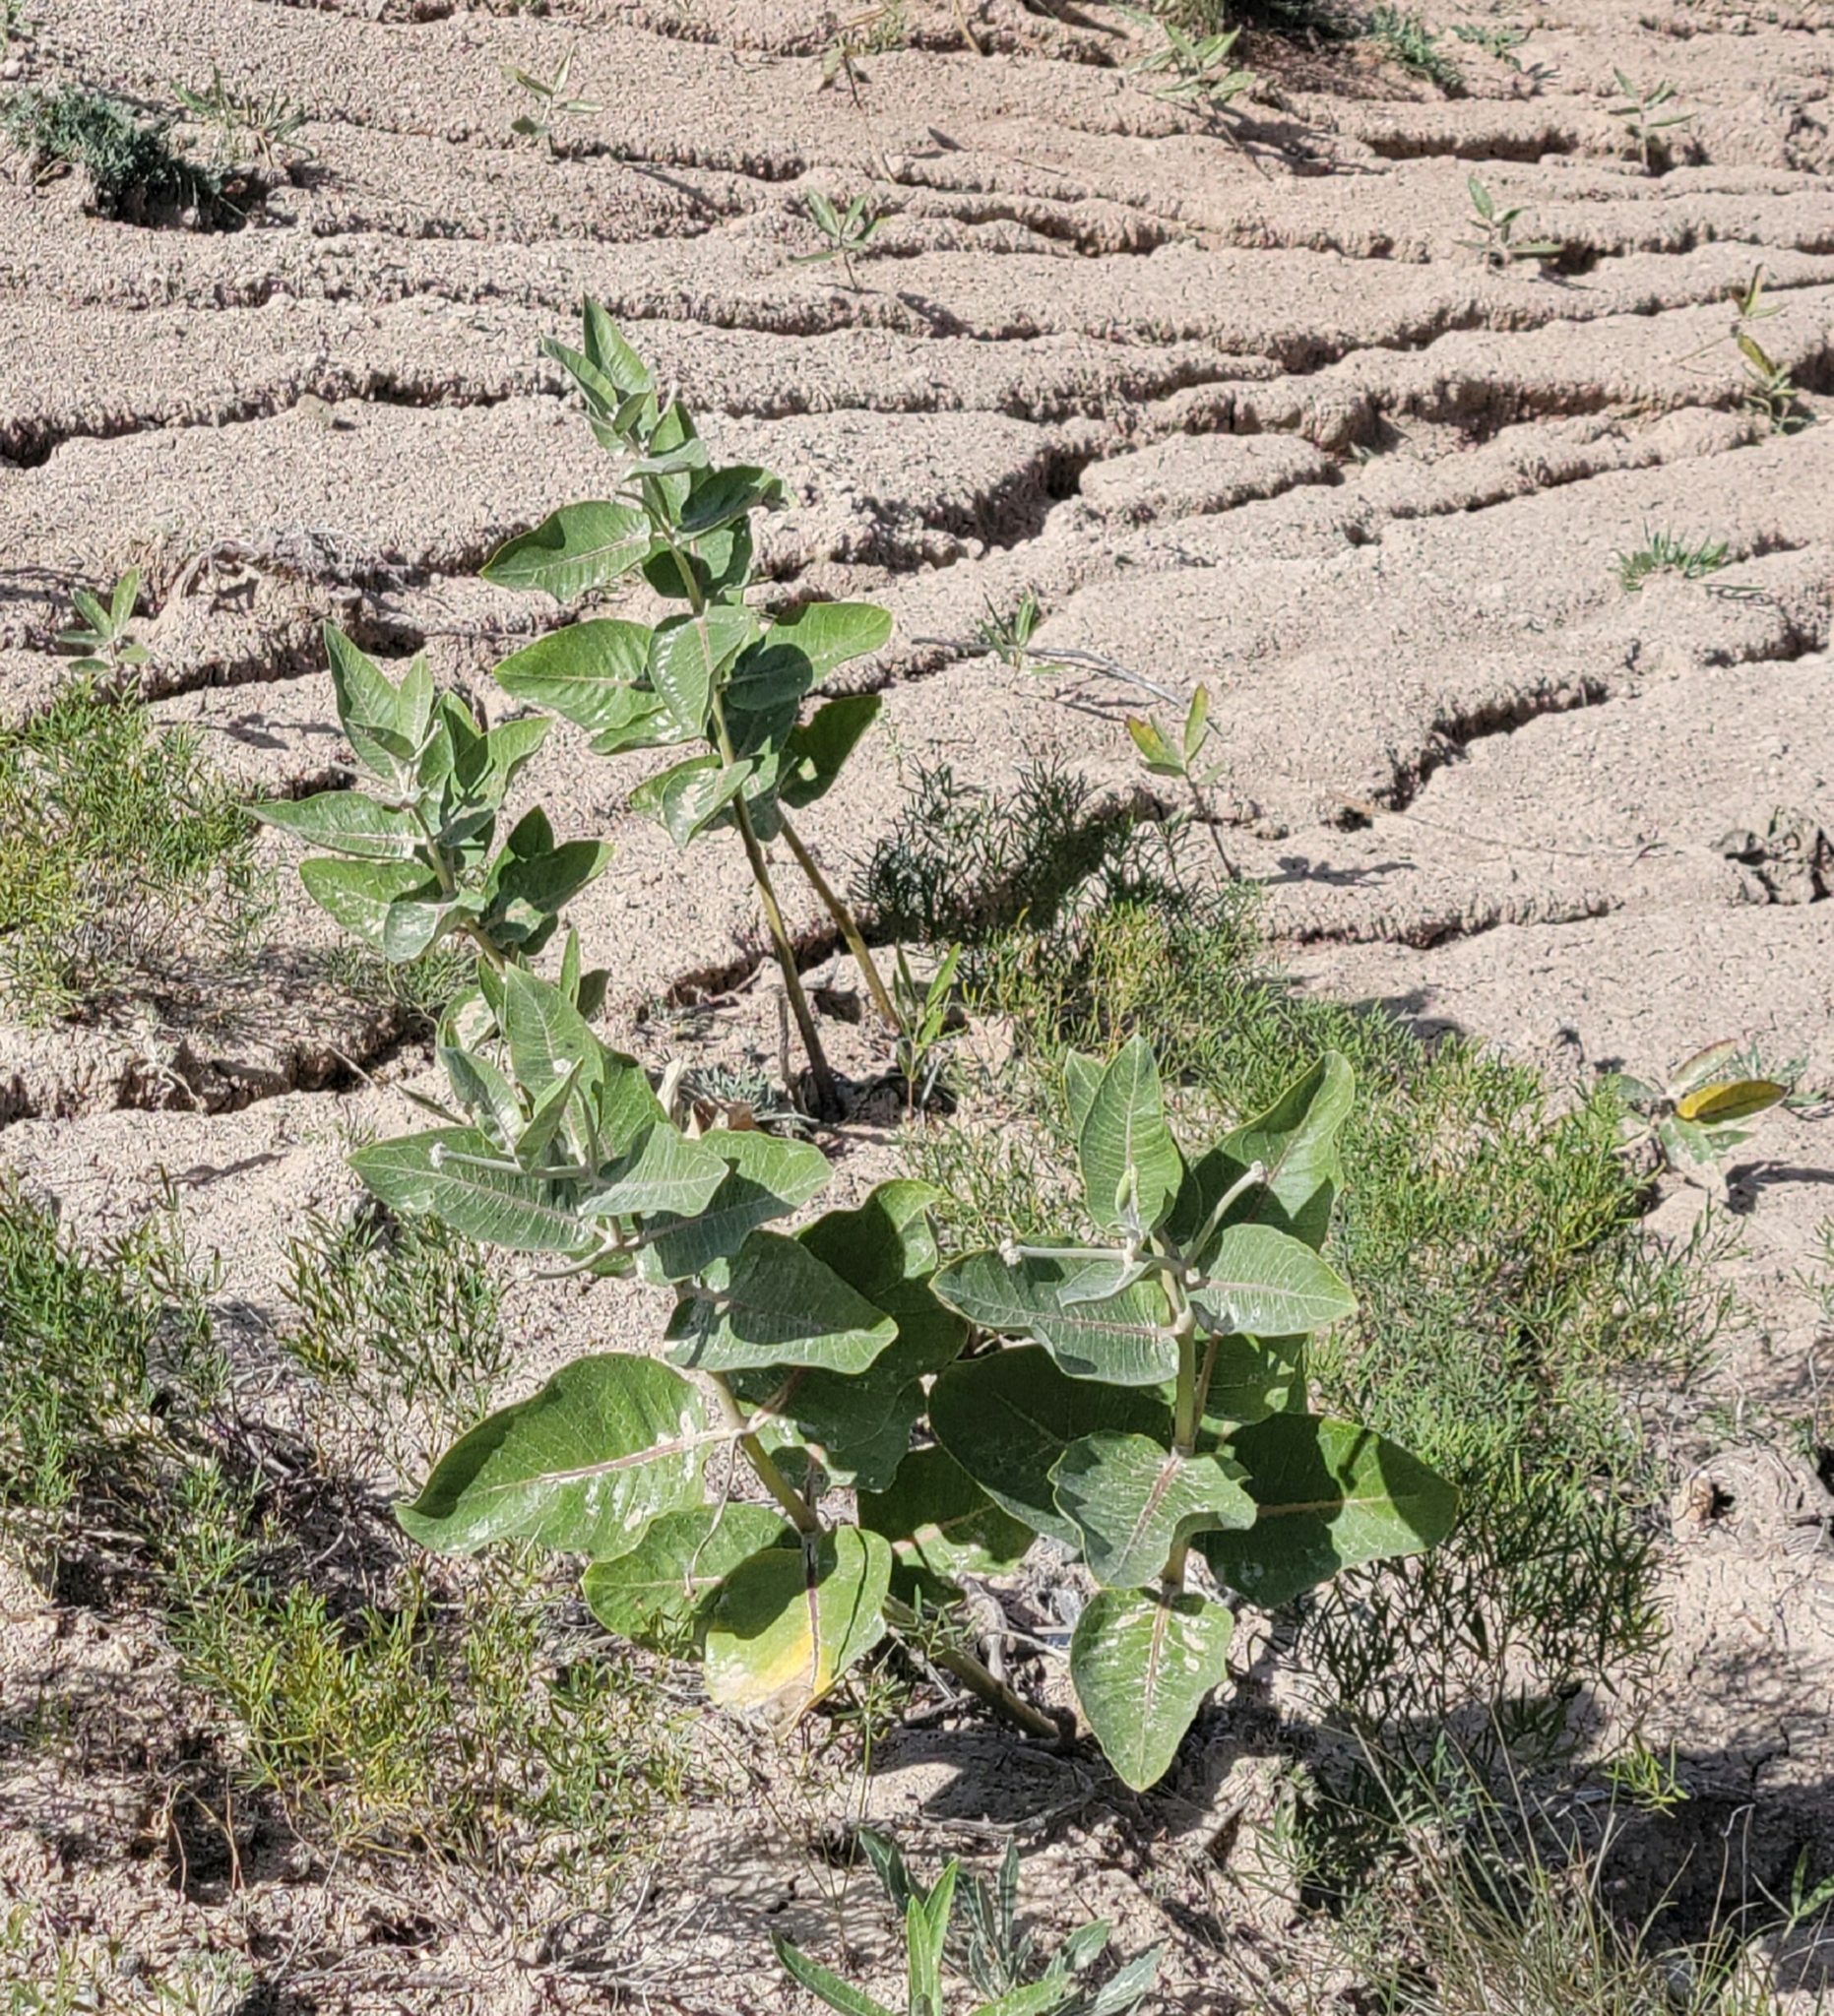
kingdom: Plantae
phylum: Tracheophyta
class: Magnoliopsida
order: Gentianales
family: Apocynaceae
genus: Asclepias
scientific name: Asclepias arenaria
